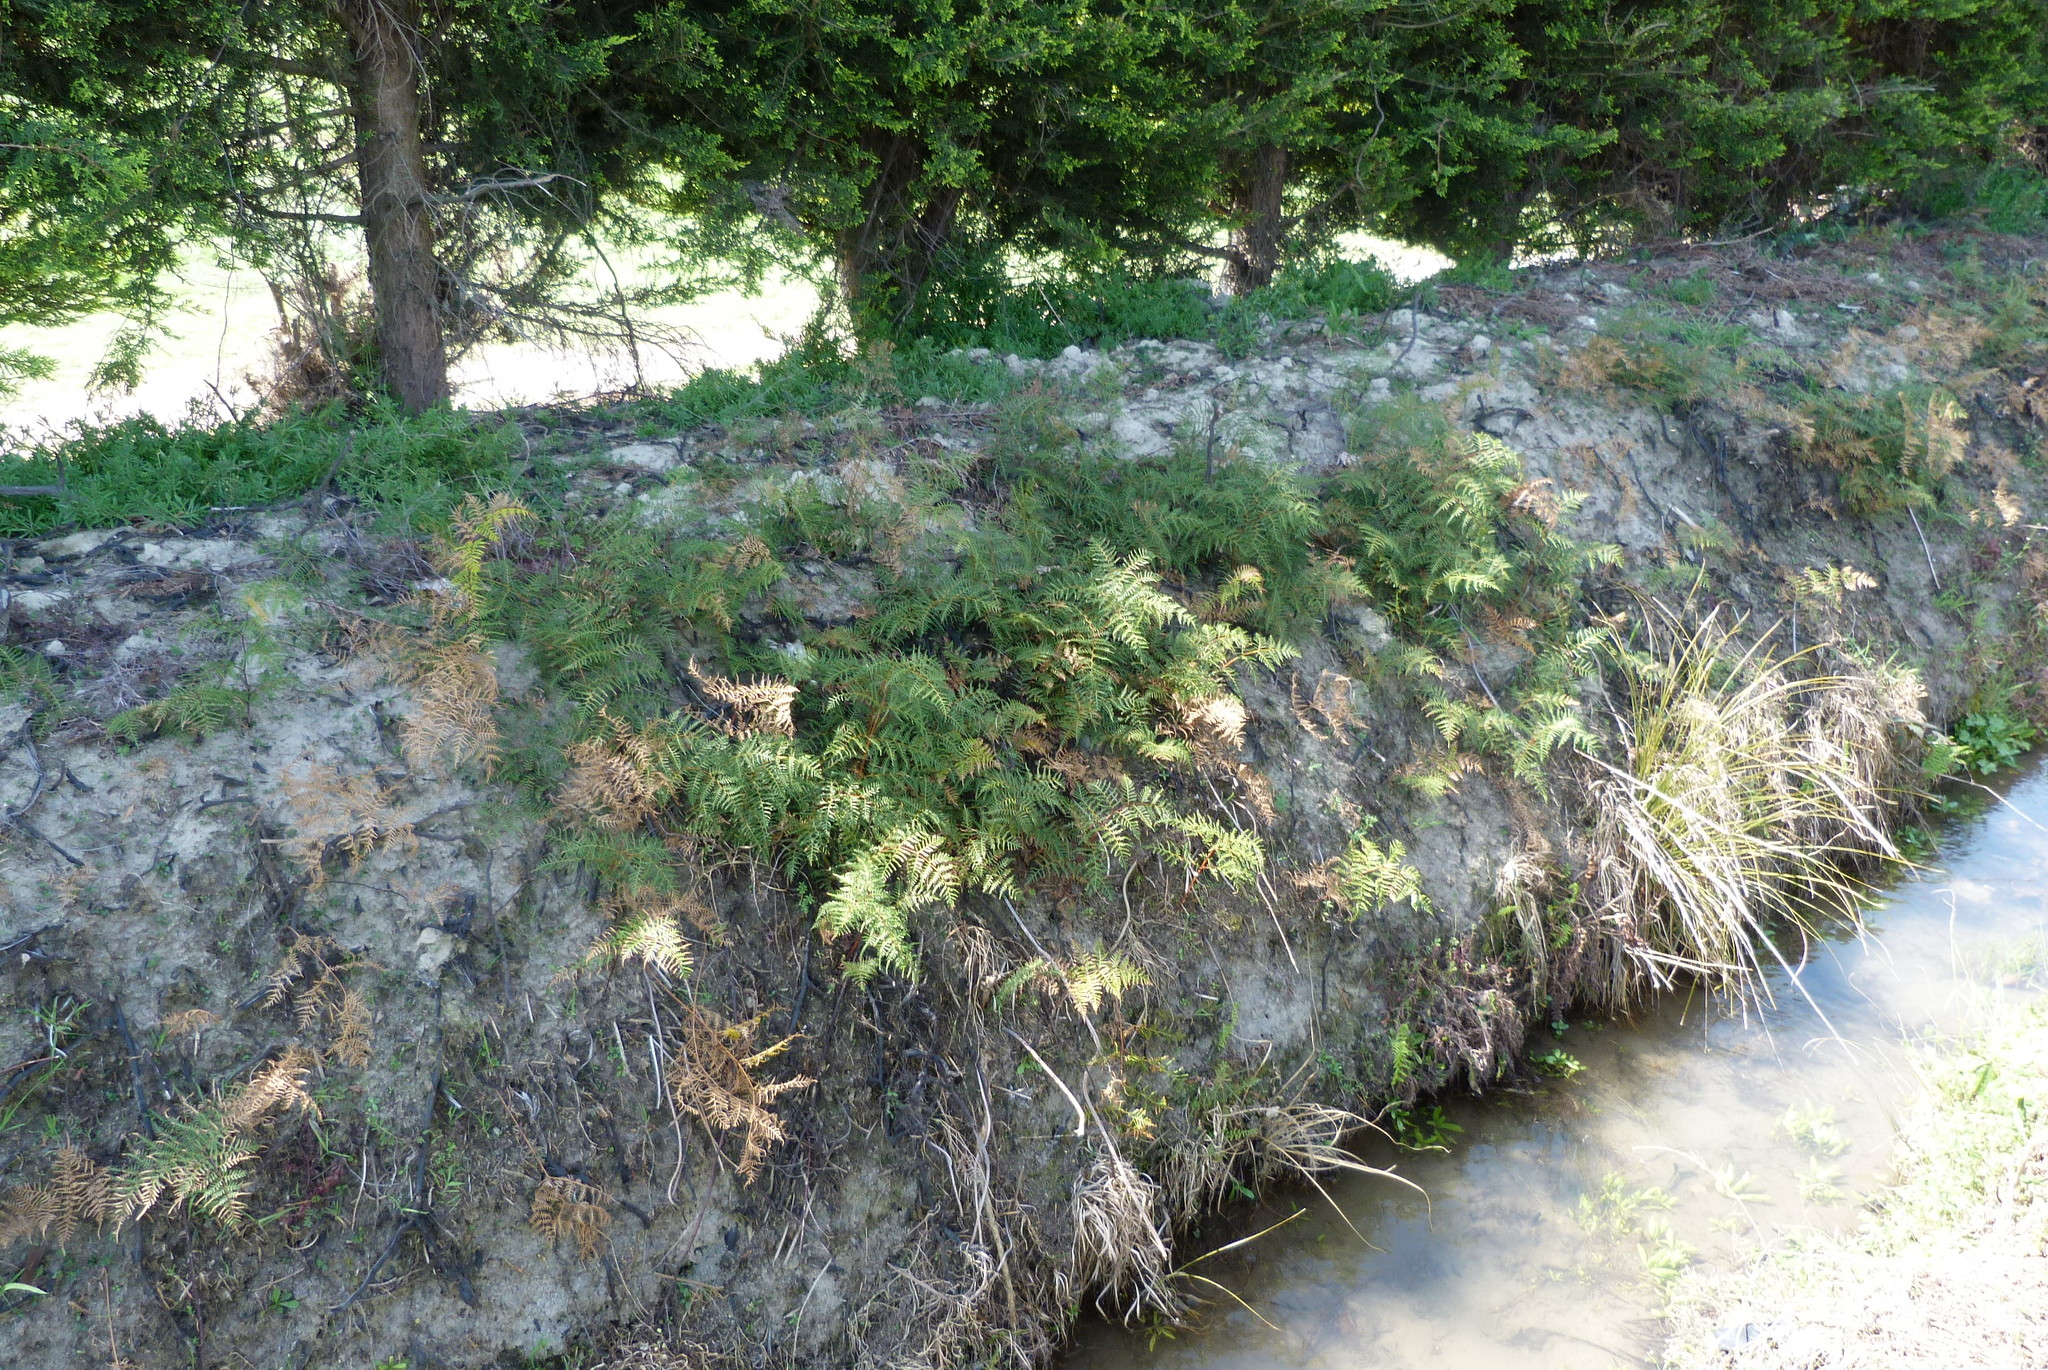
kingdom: Plantae
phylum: Tracheophyta
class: Polypodiopsida
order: Polypodiales
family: Dennstaedtiaceae
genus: Pteridium
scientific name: Pteridium esculentum
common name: Bracken fern
